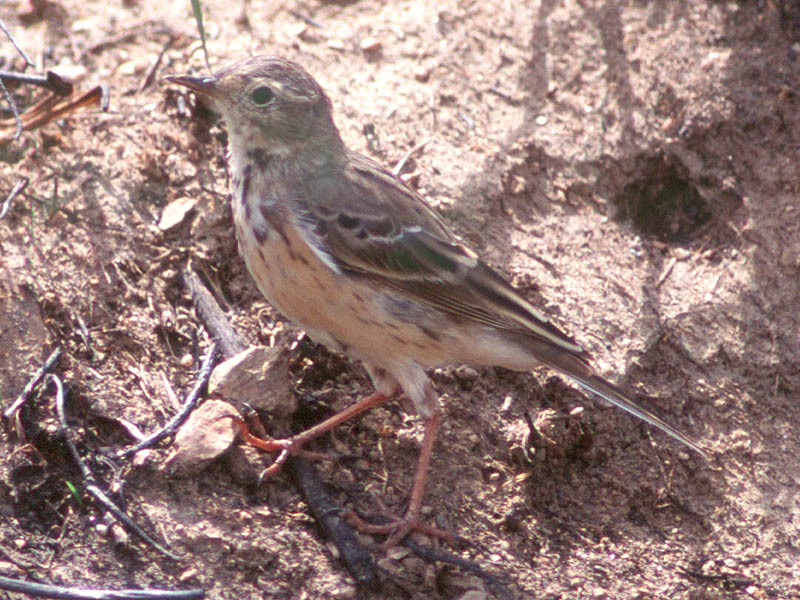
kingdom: Animalia
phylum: Chordata
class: Aves
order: Passeriformes
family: Motacillidae
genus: Anthus
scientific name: Anthus spinoletta
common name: Water pipit
